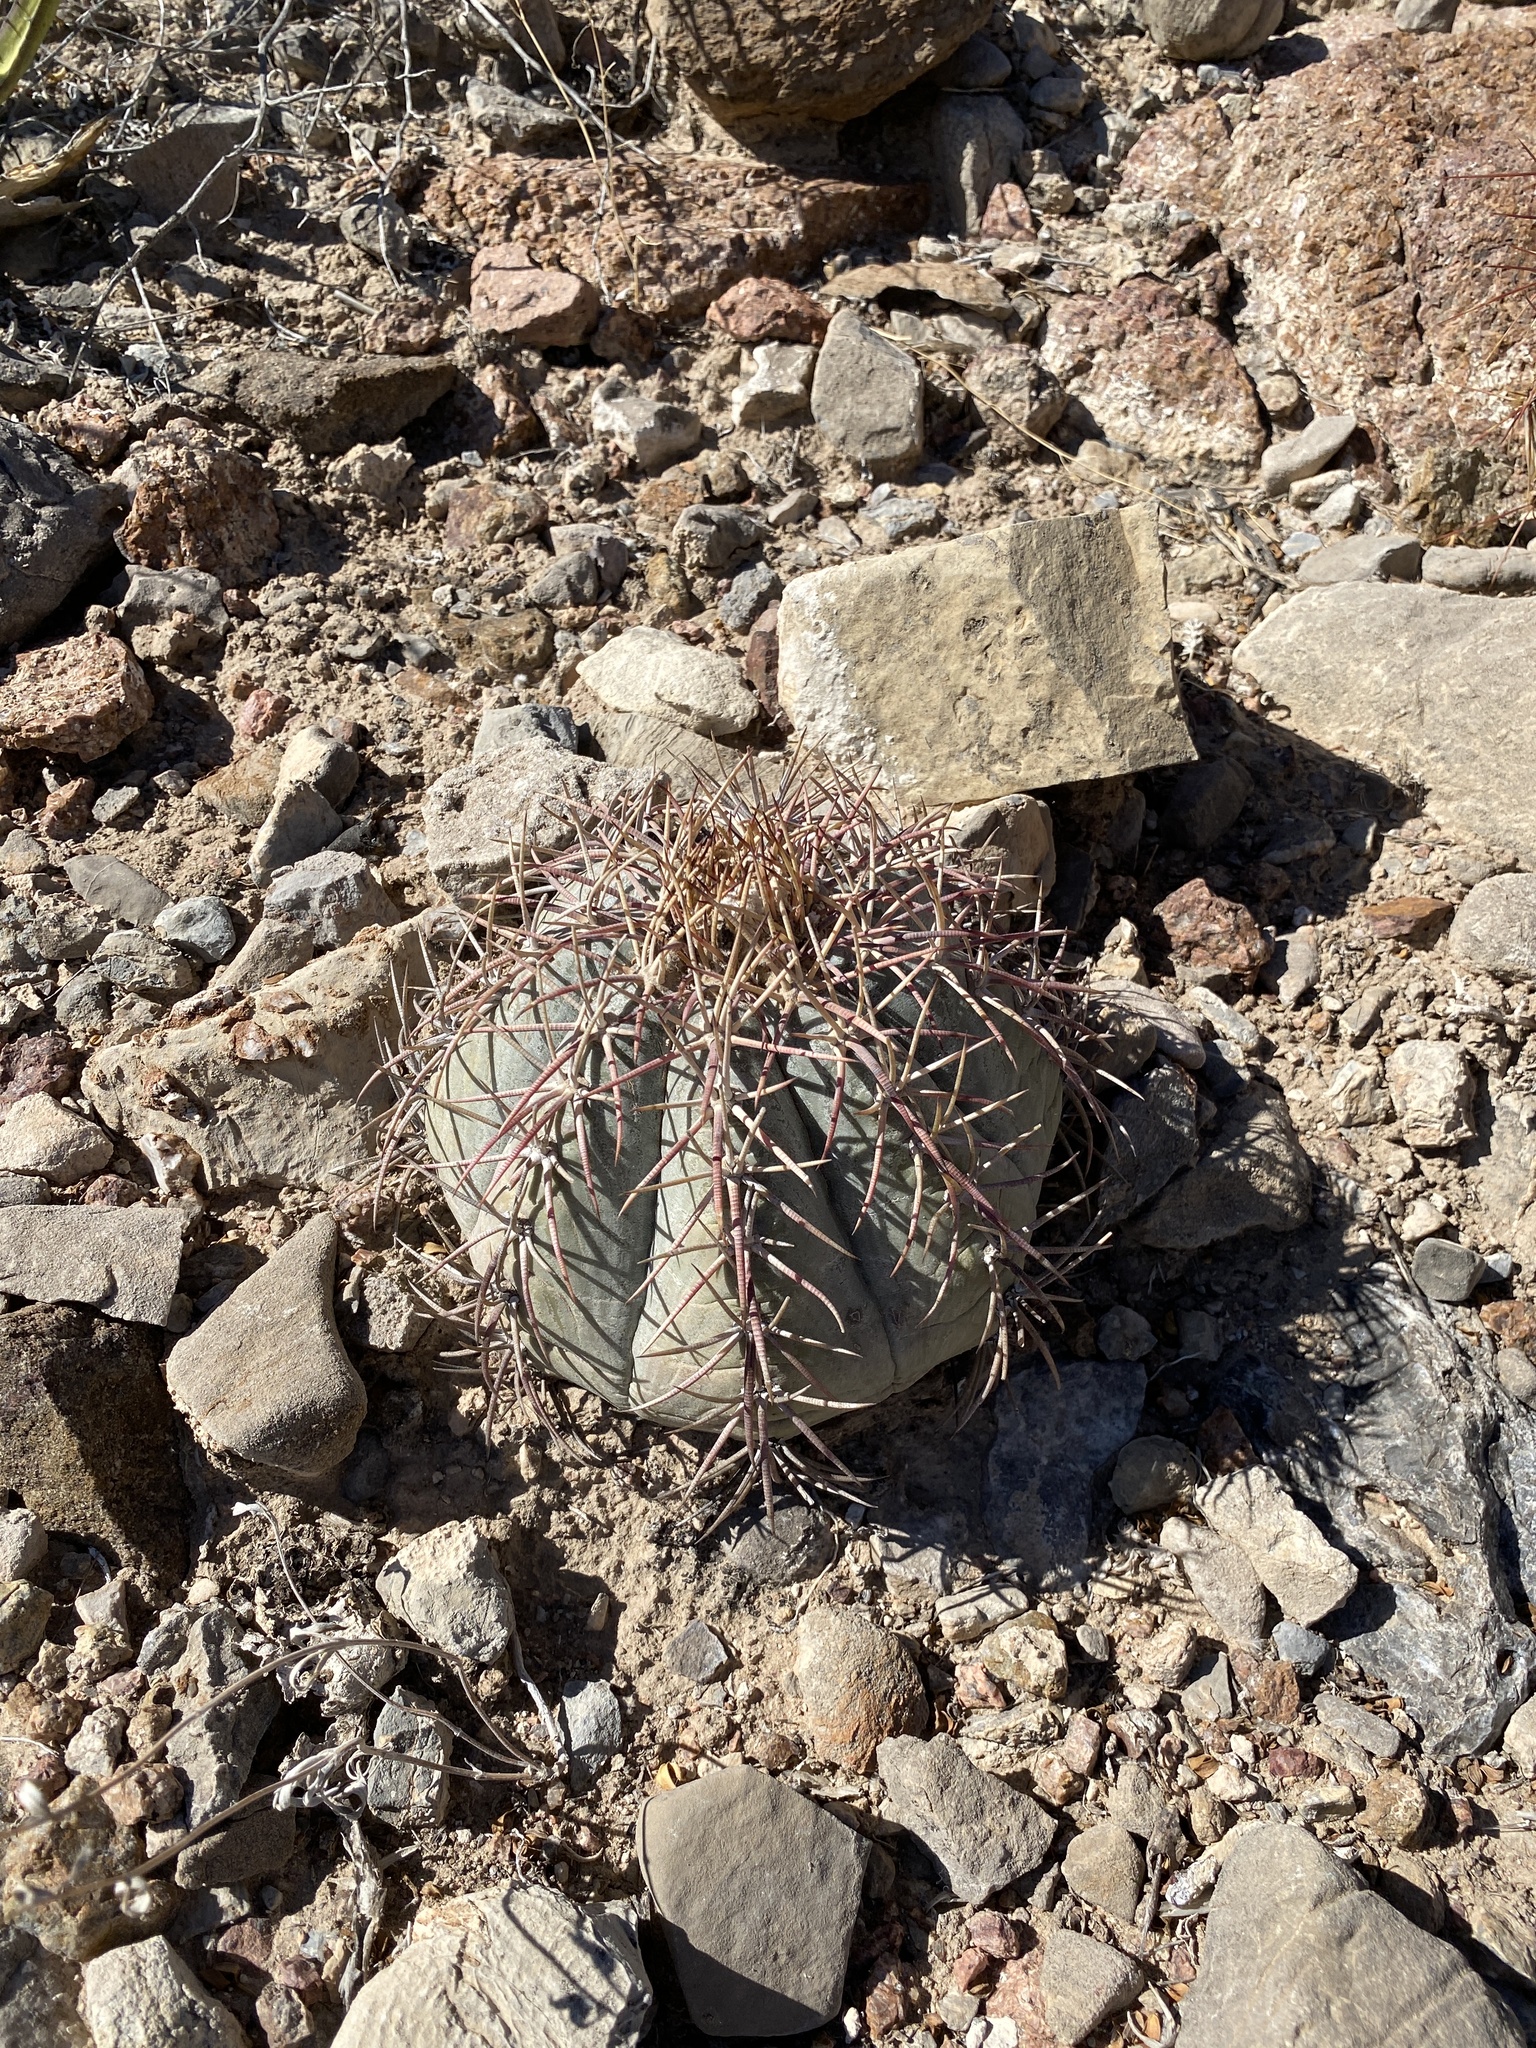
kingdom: Plantae
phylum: Tracheophyta
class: Magnoliopsida
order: Caryophyllales
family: Cactaceae
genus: Echinocactus
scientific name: Echinocactus horizonthalonius
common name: Devilshead
